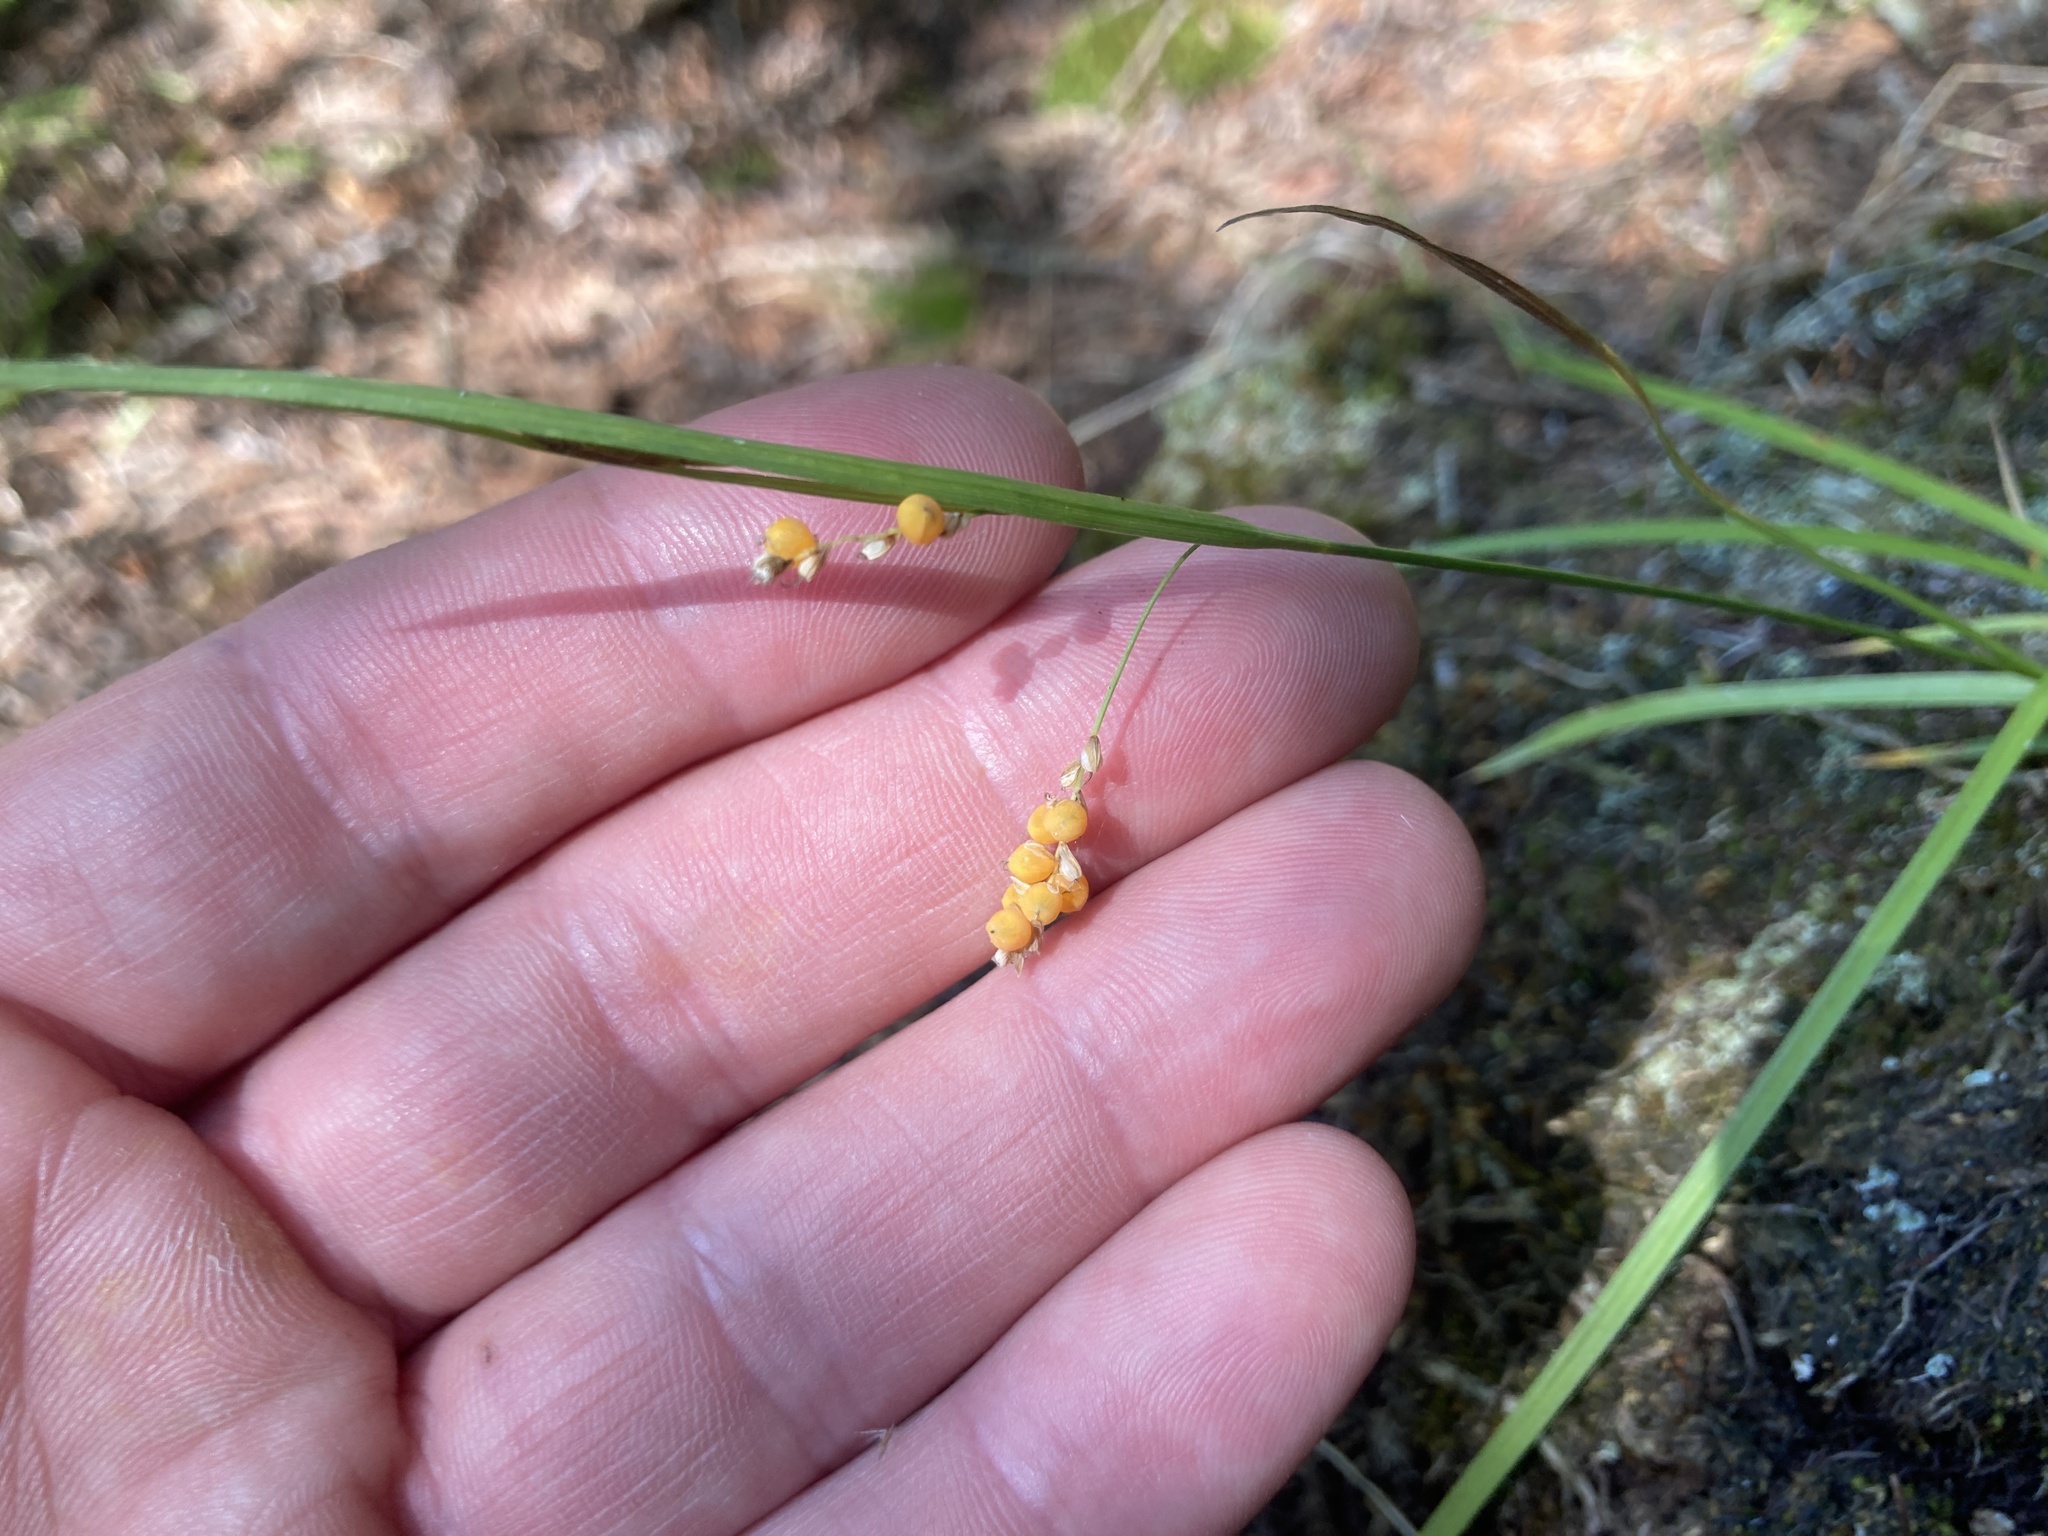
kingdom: Plantae
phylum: Tracheophyta
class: Liliopsida
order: Poales
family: Cyperaceae
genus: Carex
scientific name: Carex aurea
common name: Golden sedge
